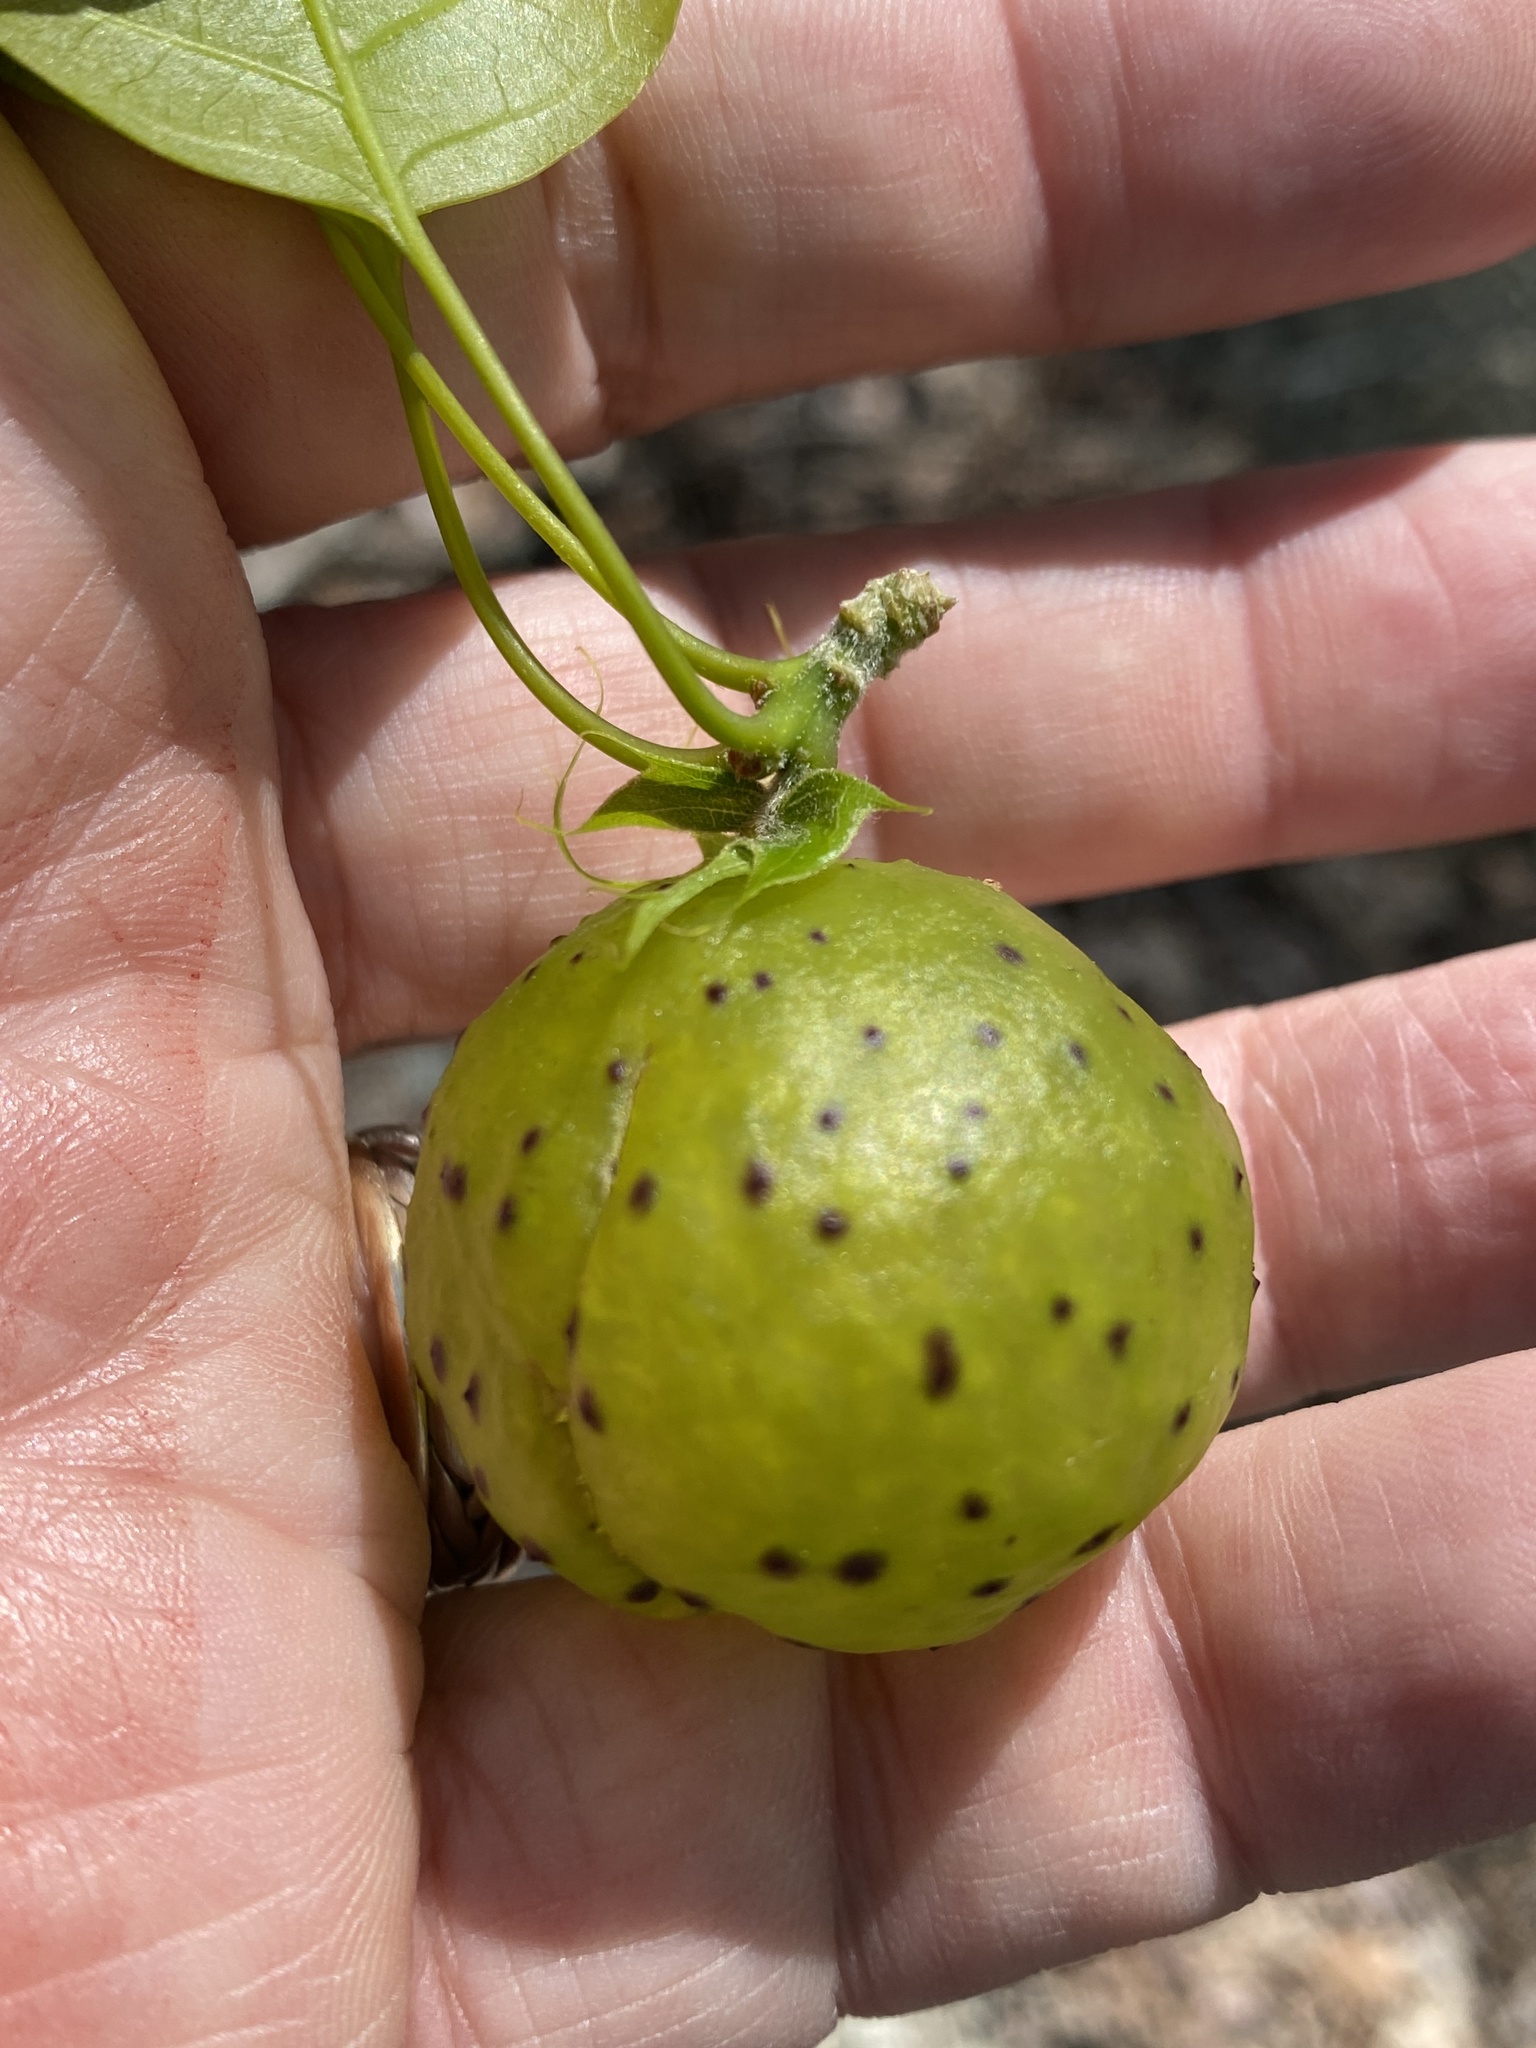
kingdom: Animalia
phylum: Arthropoda
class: Insecta
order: Hymenoptera
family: Cynipidae
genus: Amphibolips
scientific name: Amphibolips
